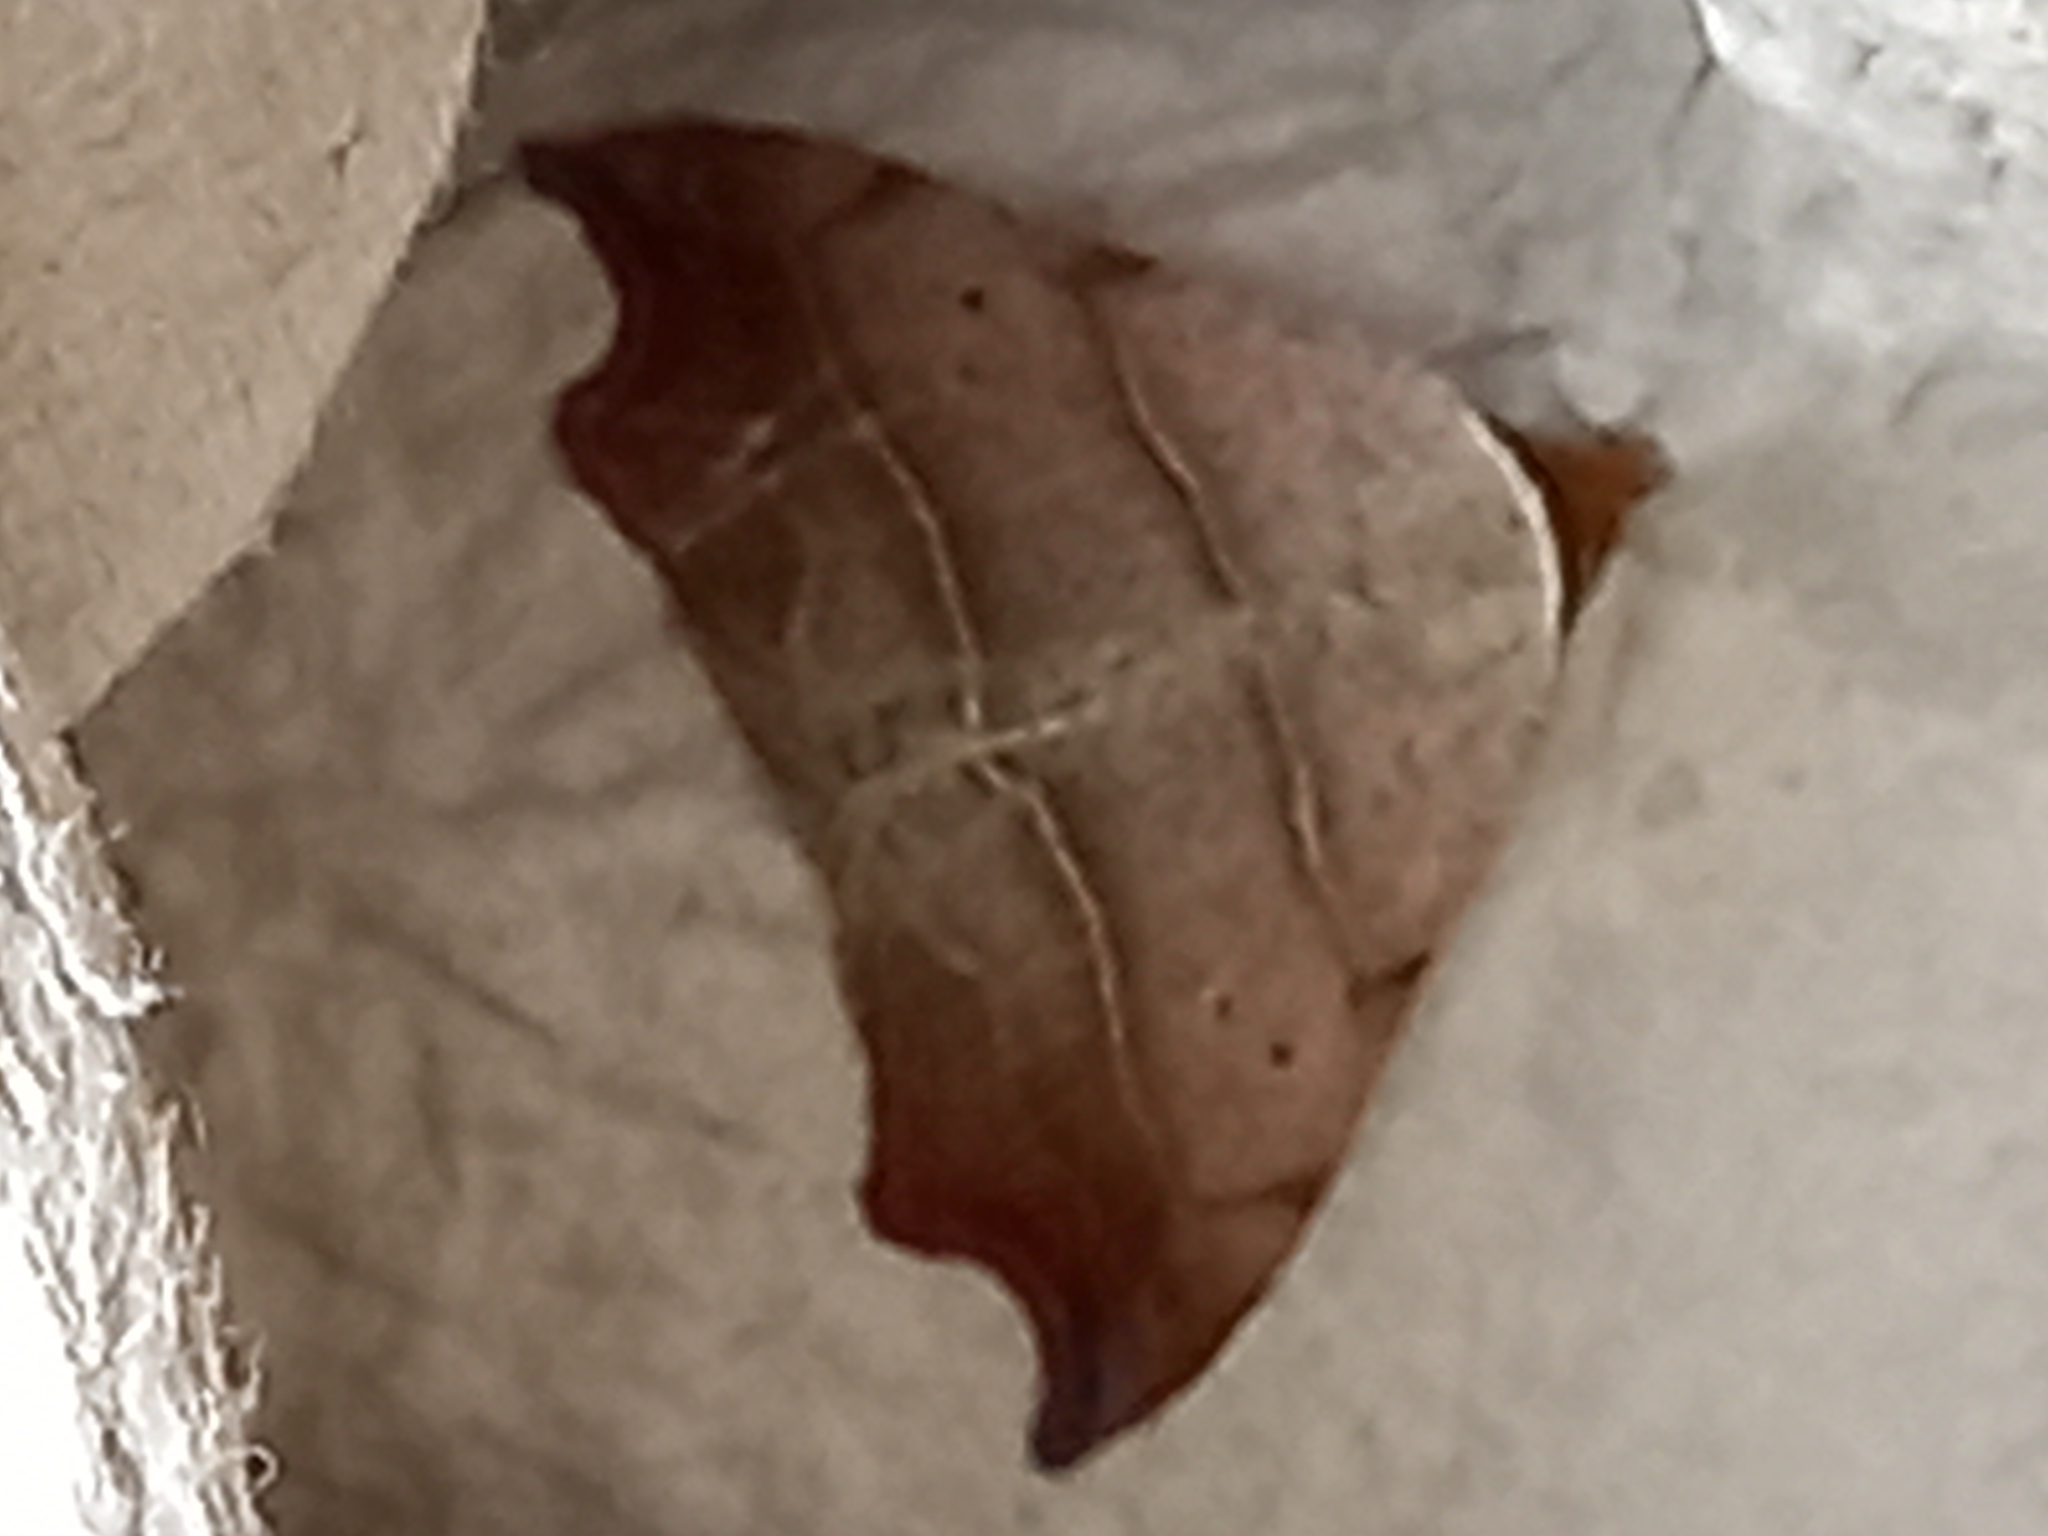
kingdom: Animalia
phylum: Arthropoda
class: Insecta
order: Lepidoptera
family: Erebidae
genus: Laspeyria
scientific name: Laspeyria flexula
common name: Beautiful hook-tip
